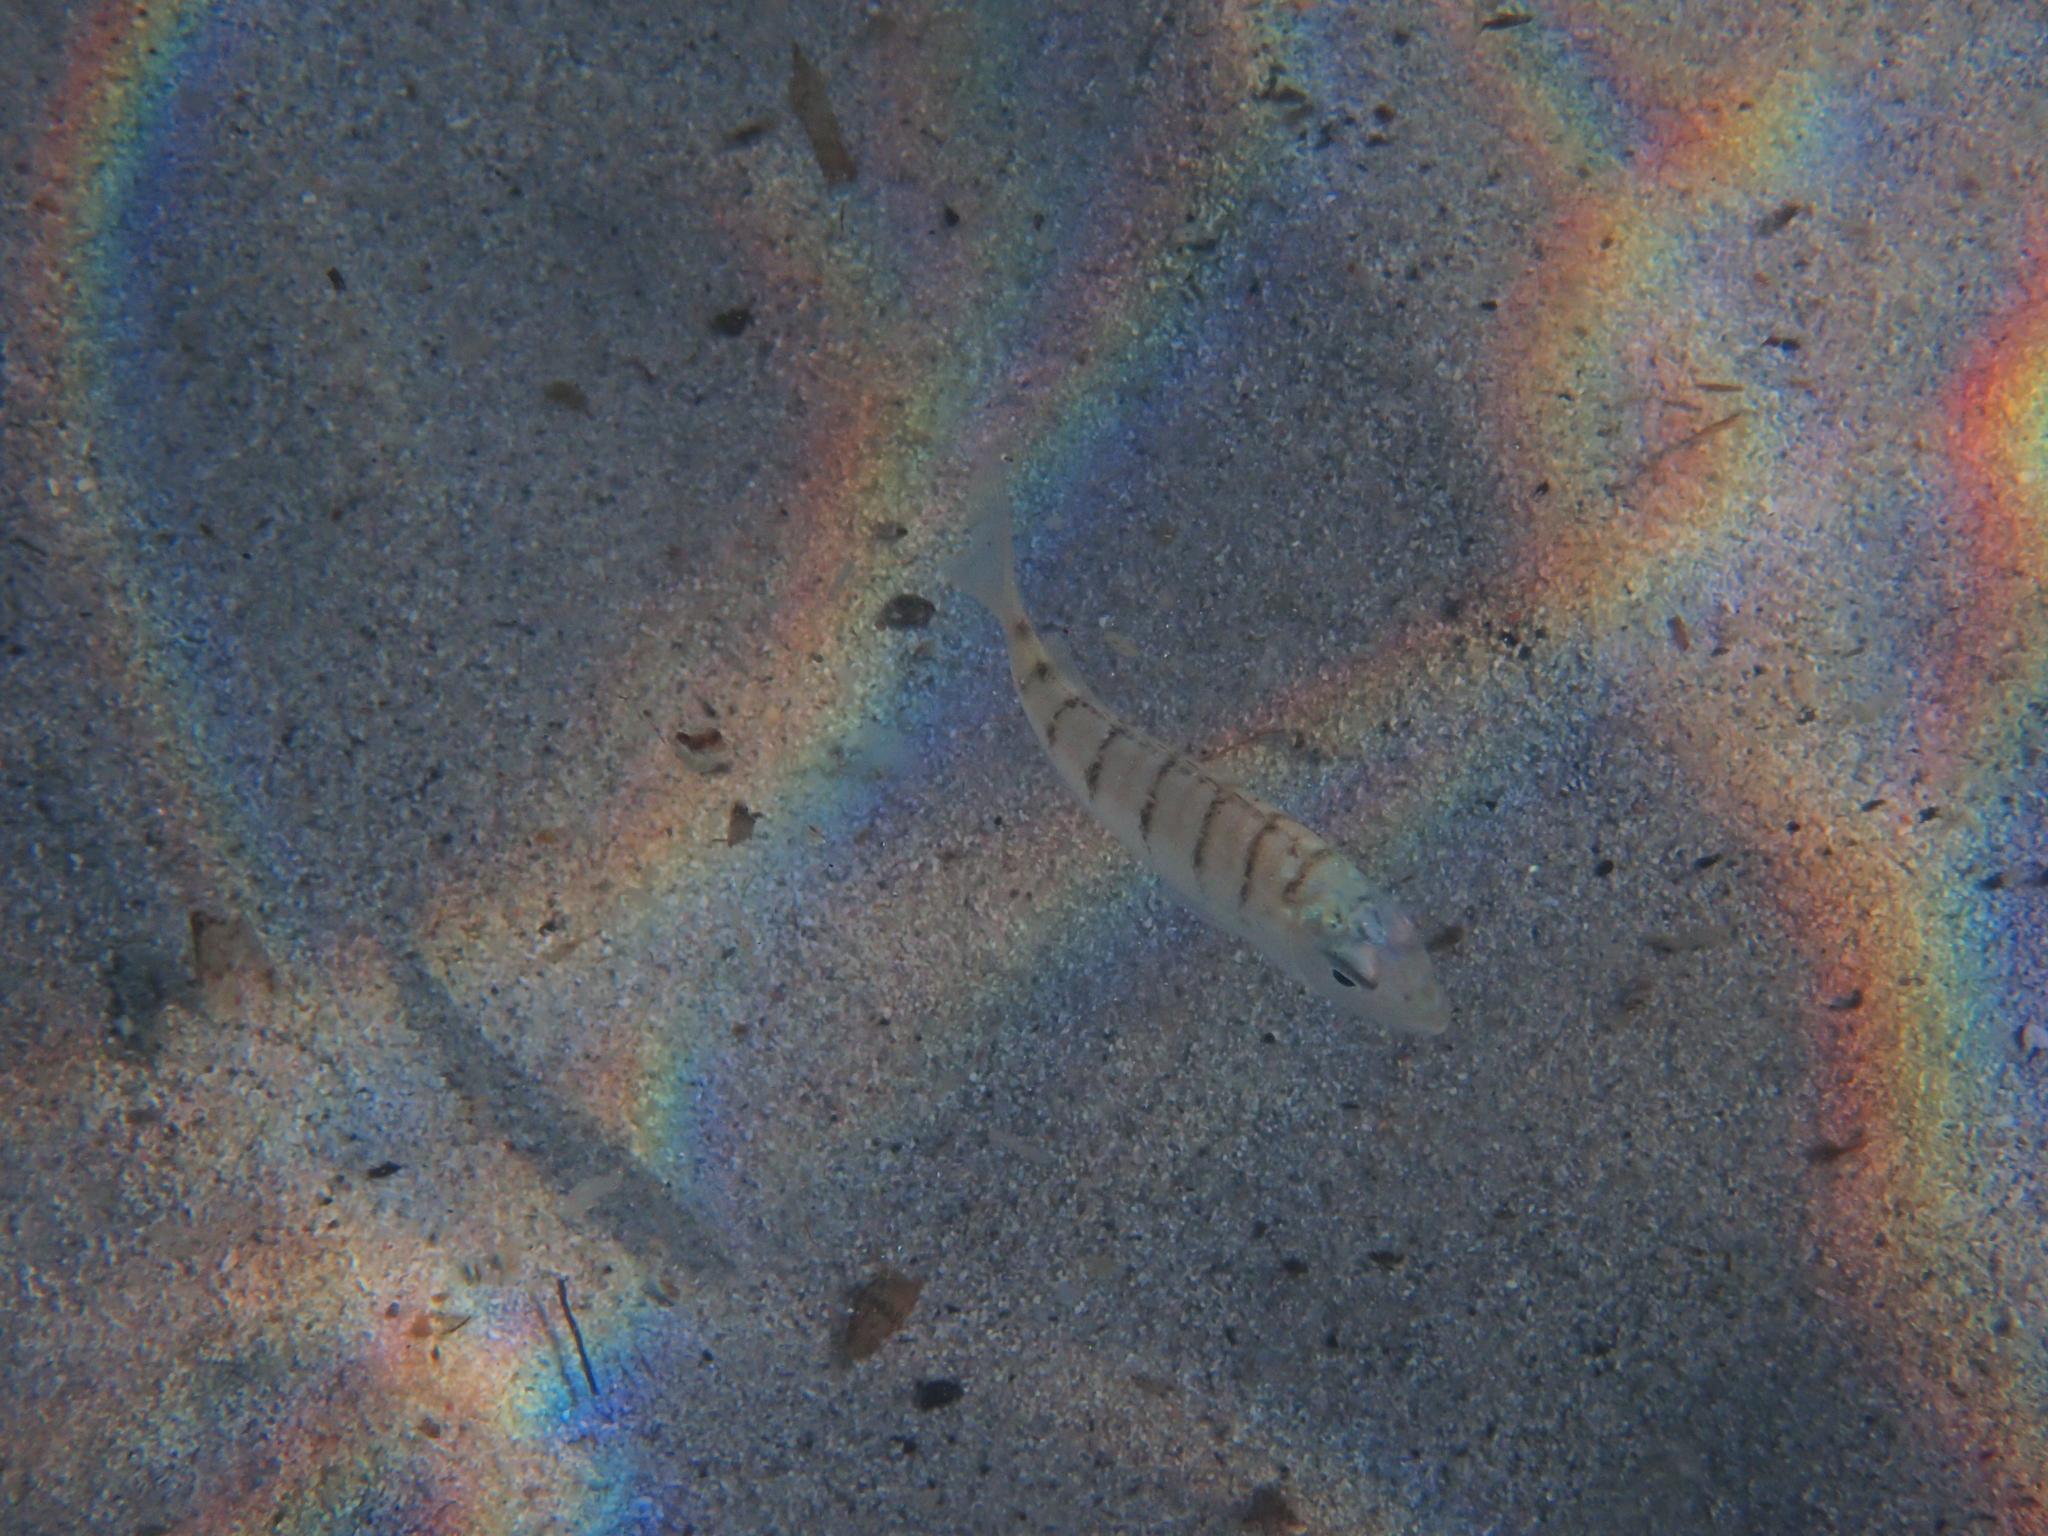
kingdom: Animalia
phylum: Chordata
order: Perciformes
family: Sparidae
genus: Lithognathus
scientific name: Lithognathus mormyrus
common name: Sand steenbras
